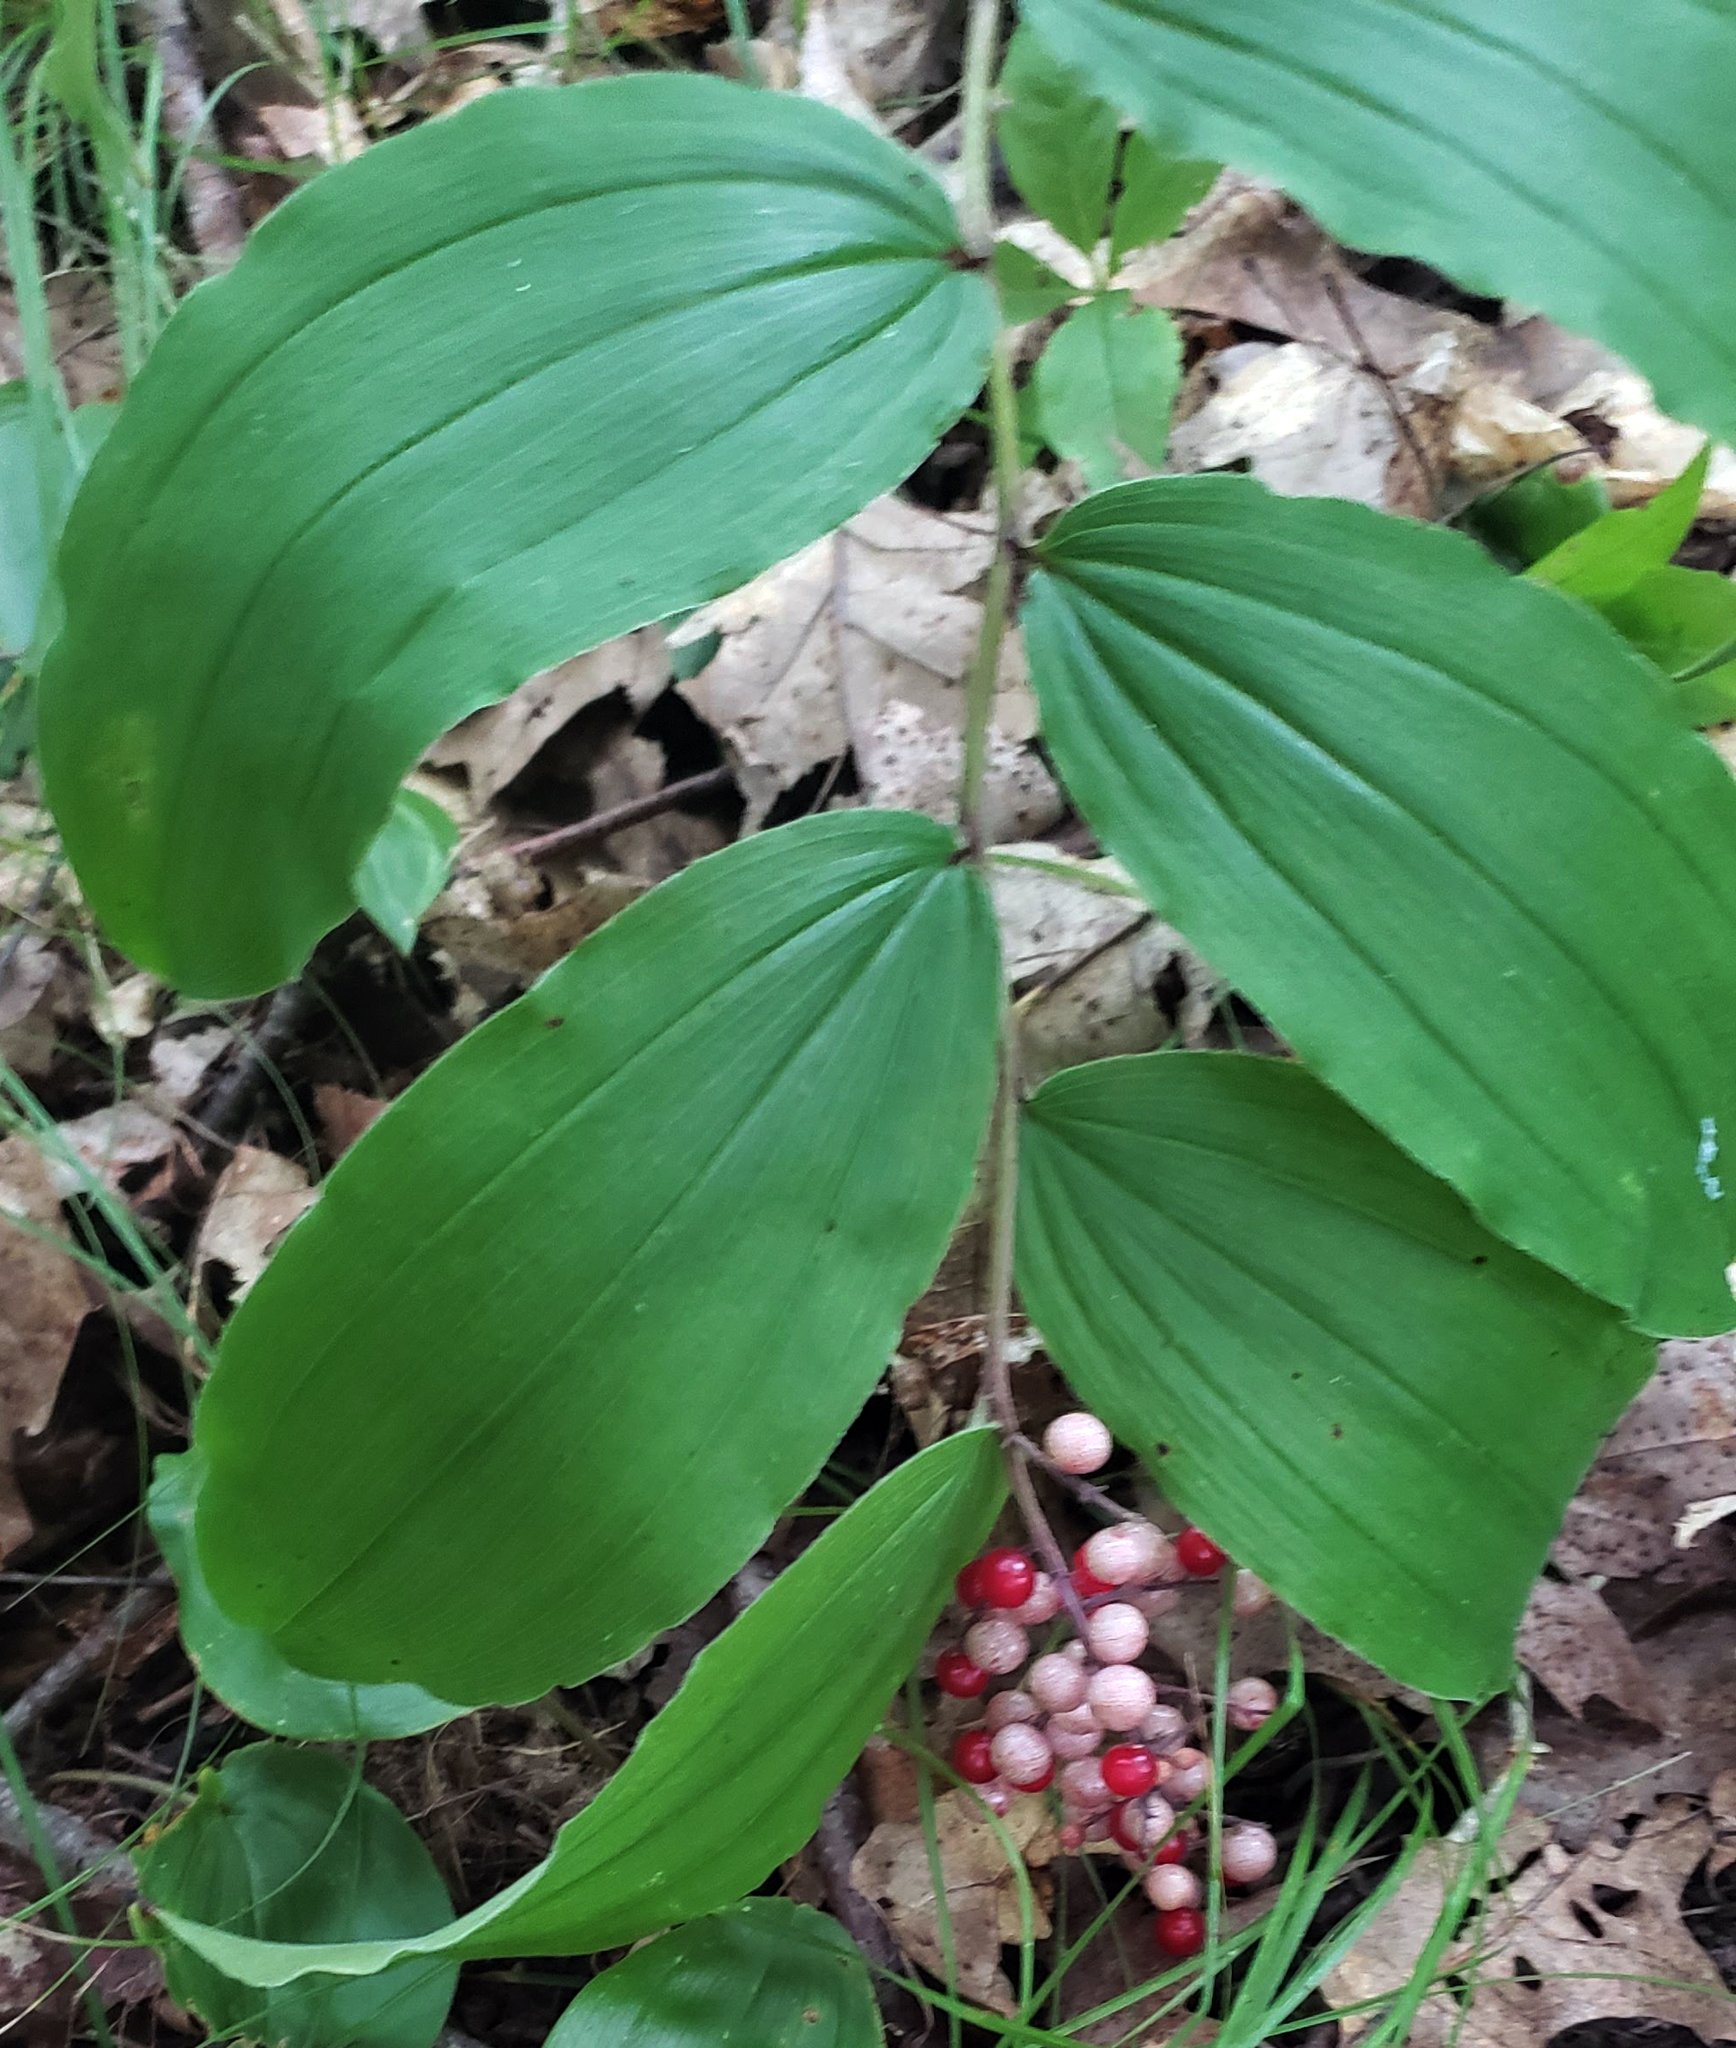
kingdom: Plantae
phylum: Tracheophyta
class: Liliopsida
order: Asparagales
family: Asparagaceae
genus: Maianthemum
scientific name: Maianthemum racemosum
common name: False spikenard
